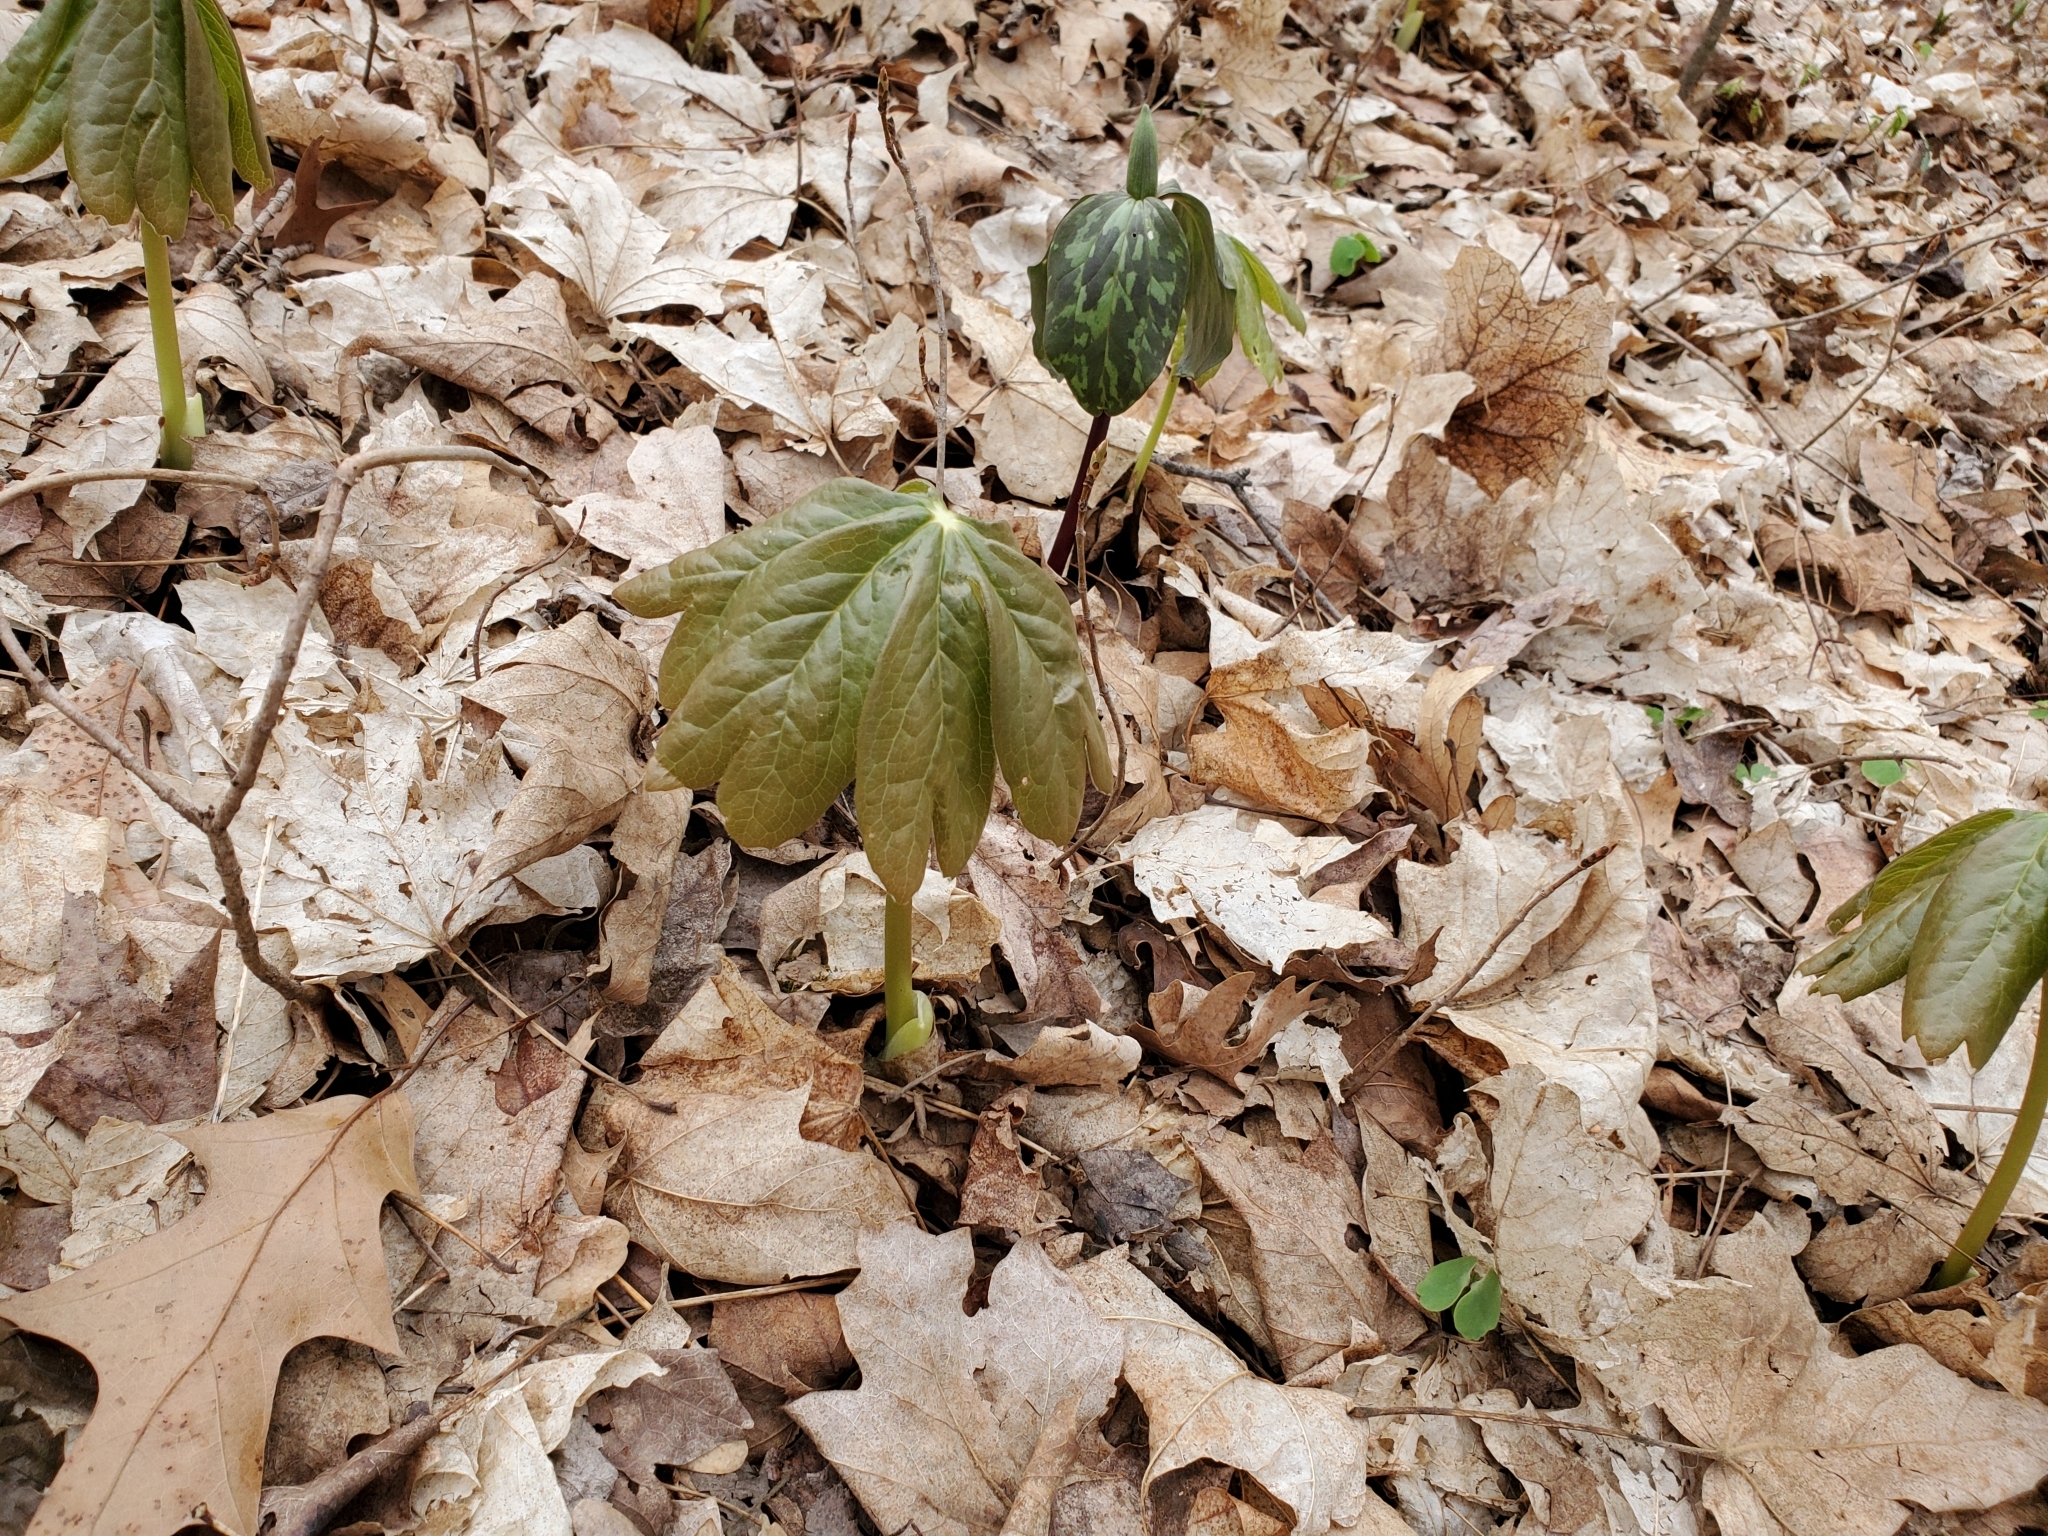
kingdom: Plantae
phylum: Tracheophyta
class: Magnoliopsida
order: Ranunculales
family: Berberidaceae
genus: Podophyllum
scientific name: Podophyllum peltatum
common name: Wild mandrake
